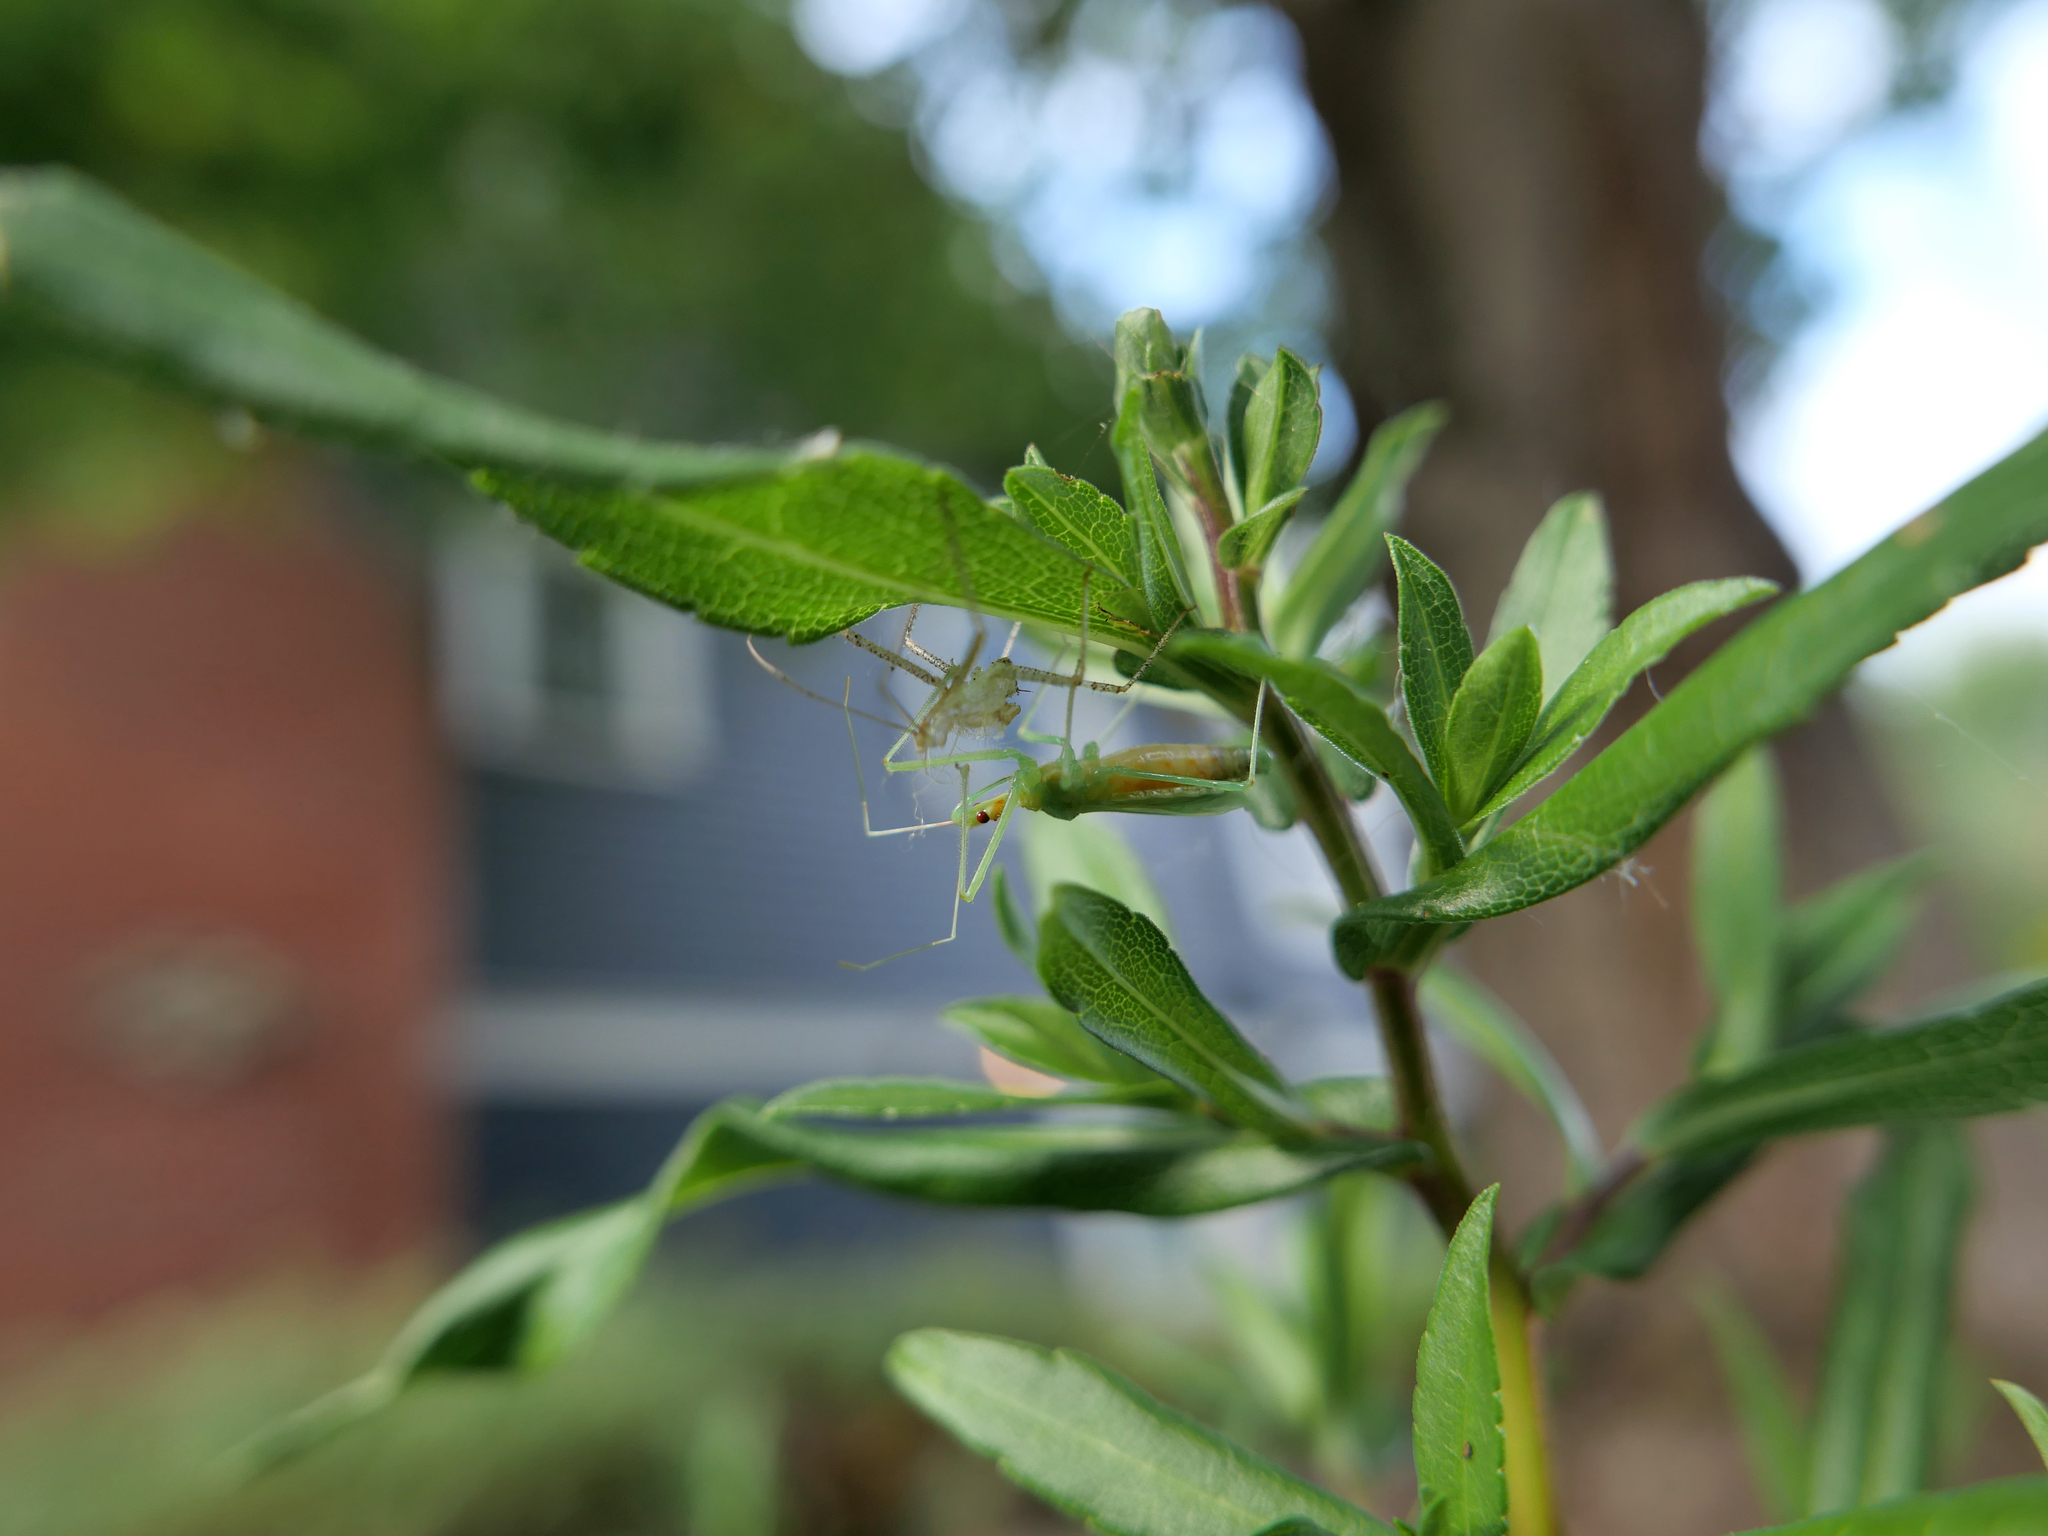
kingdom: Animalia
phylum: Arthropoda
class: Insecta
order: Hemiptera
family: Reduviidae
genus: Zelus
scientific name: Zelus renardii
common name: Assassin bug
